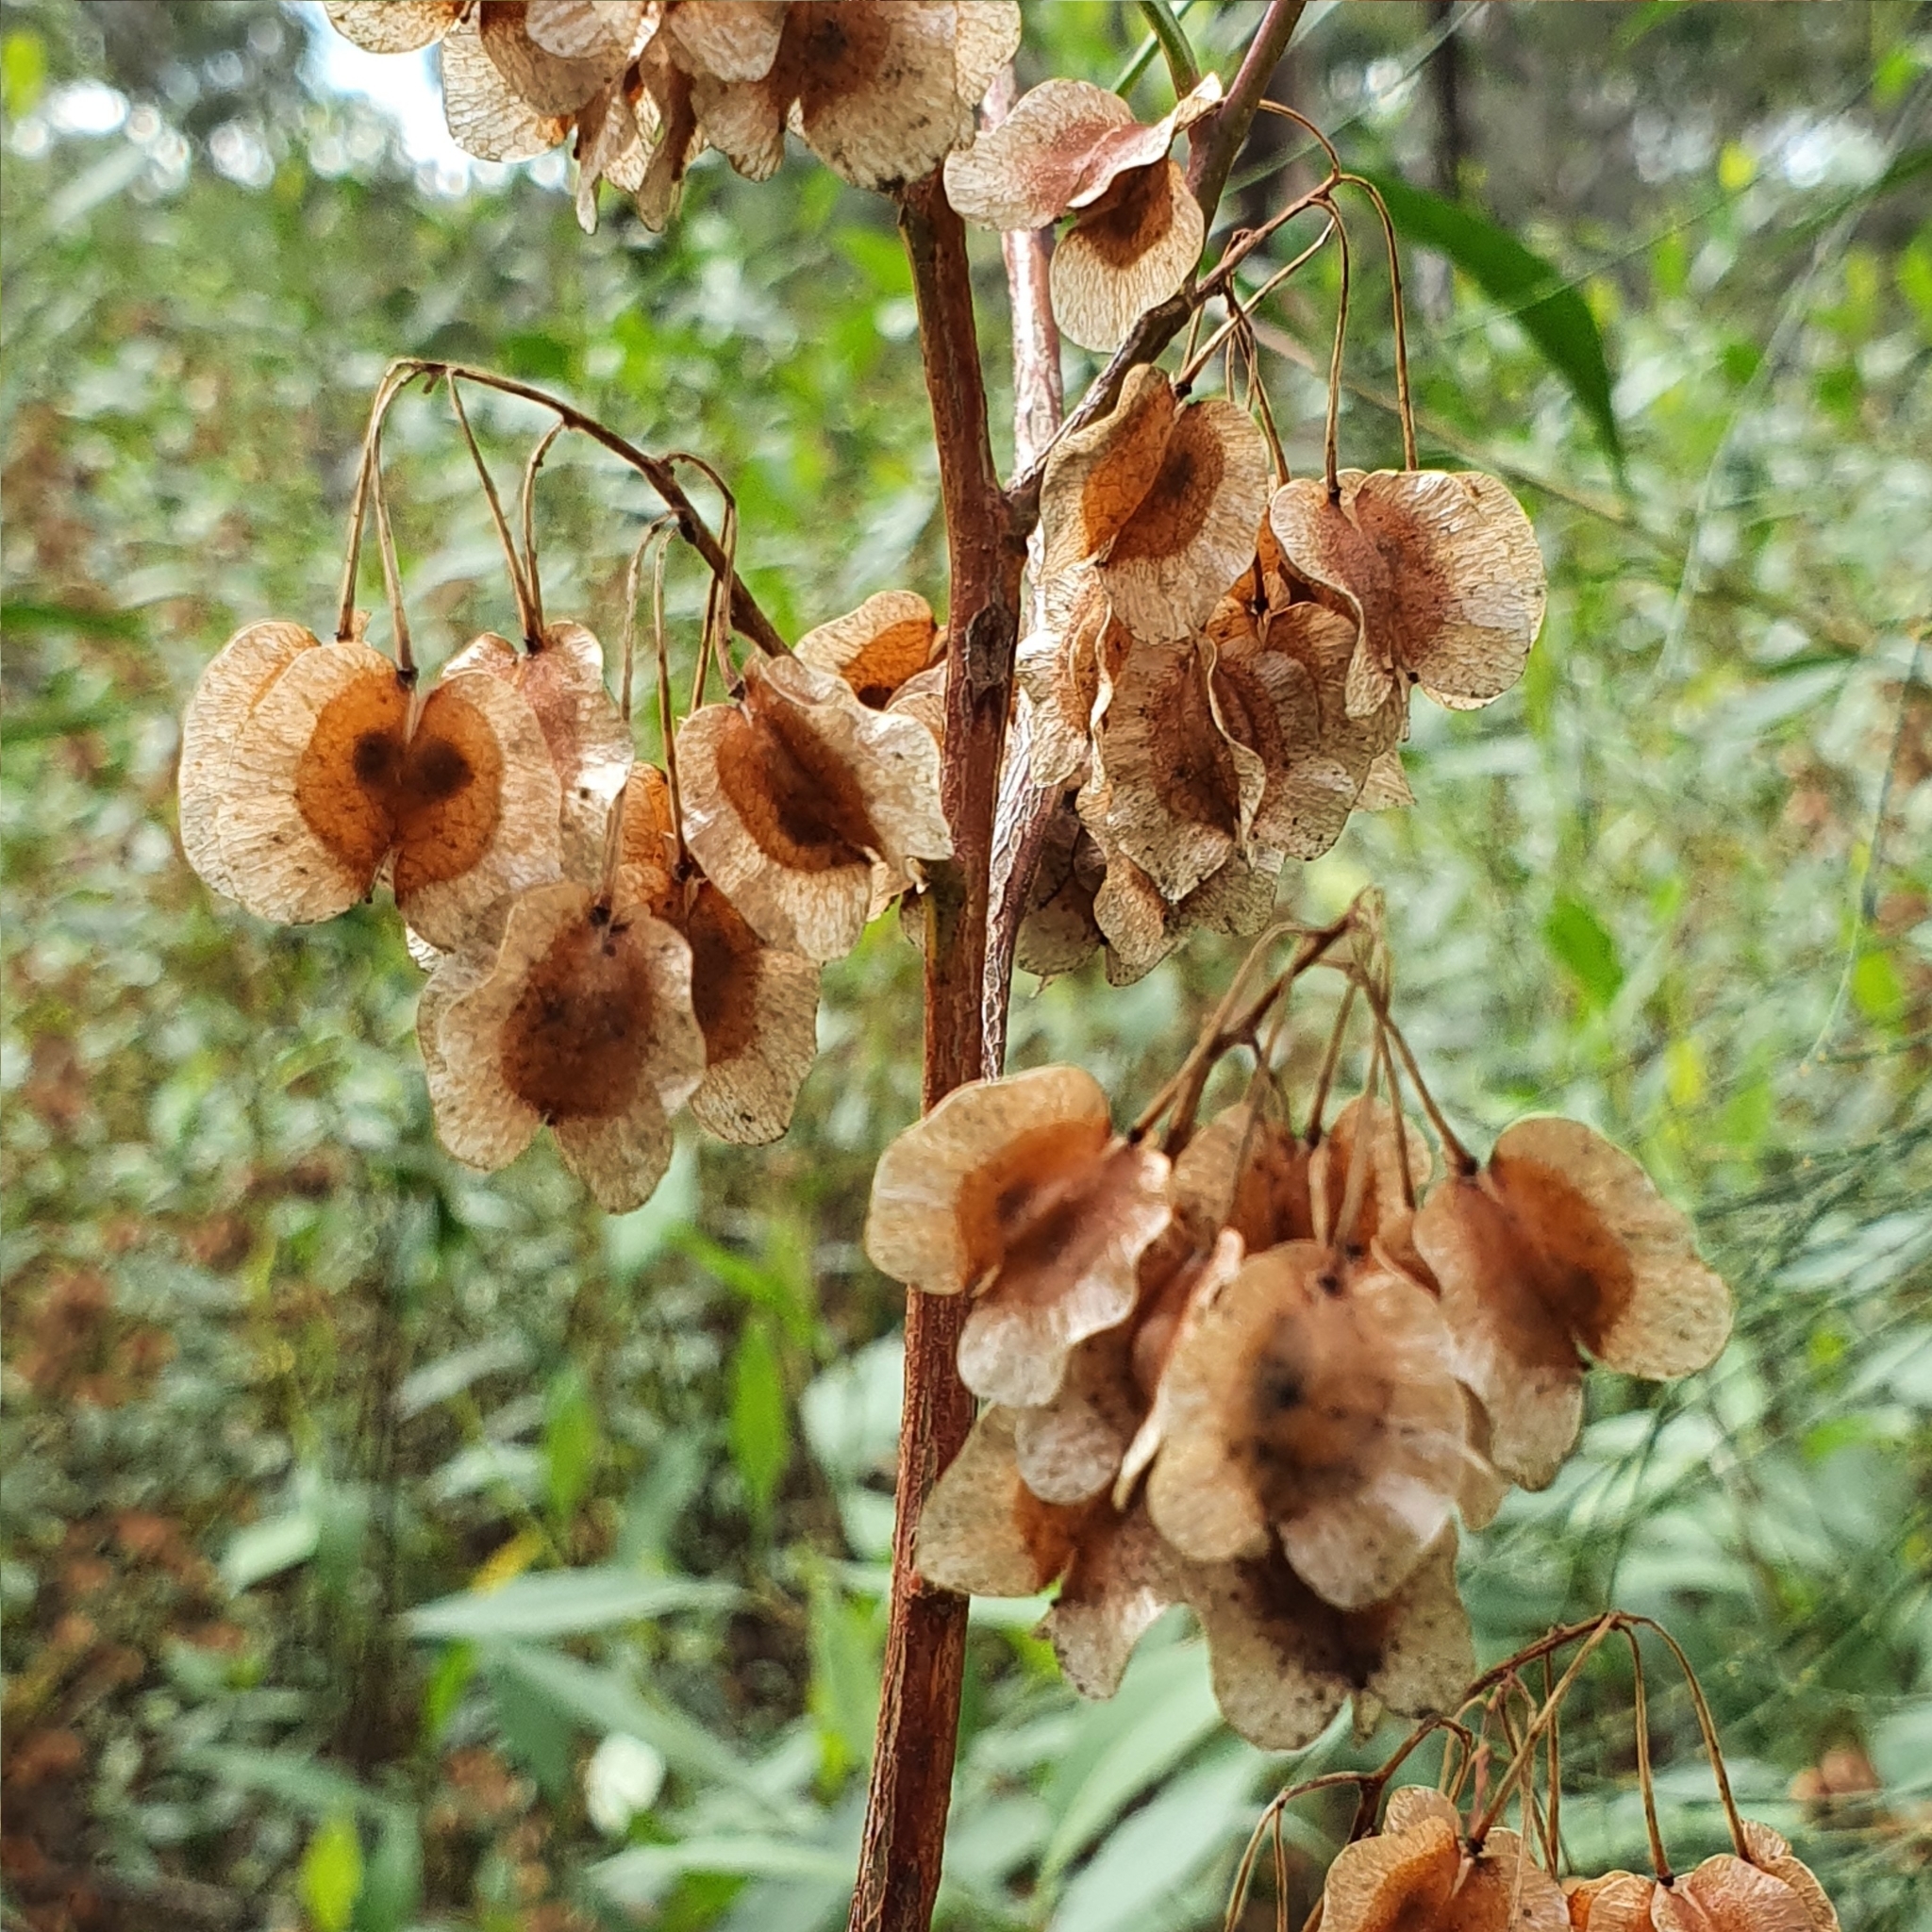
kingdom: Plantae
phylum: Tracheophyta
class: Magnoliopsida
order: Sapindales
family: Sapindaceae
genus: Dodonaea
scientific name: Dodonaea triquetra
